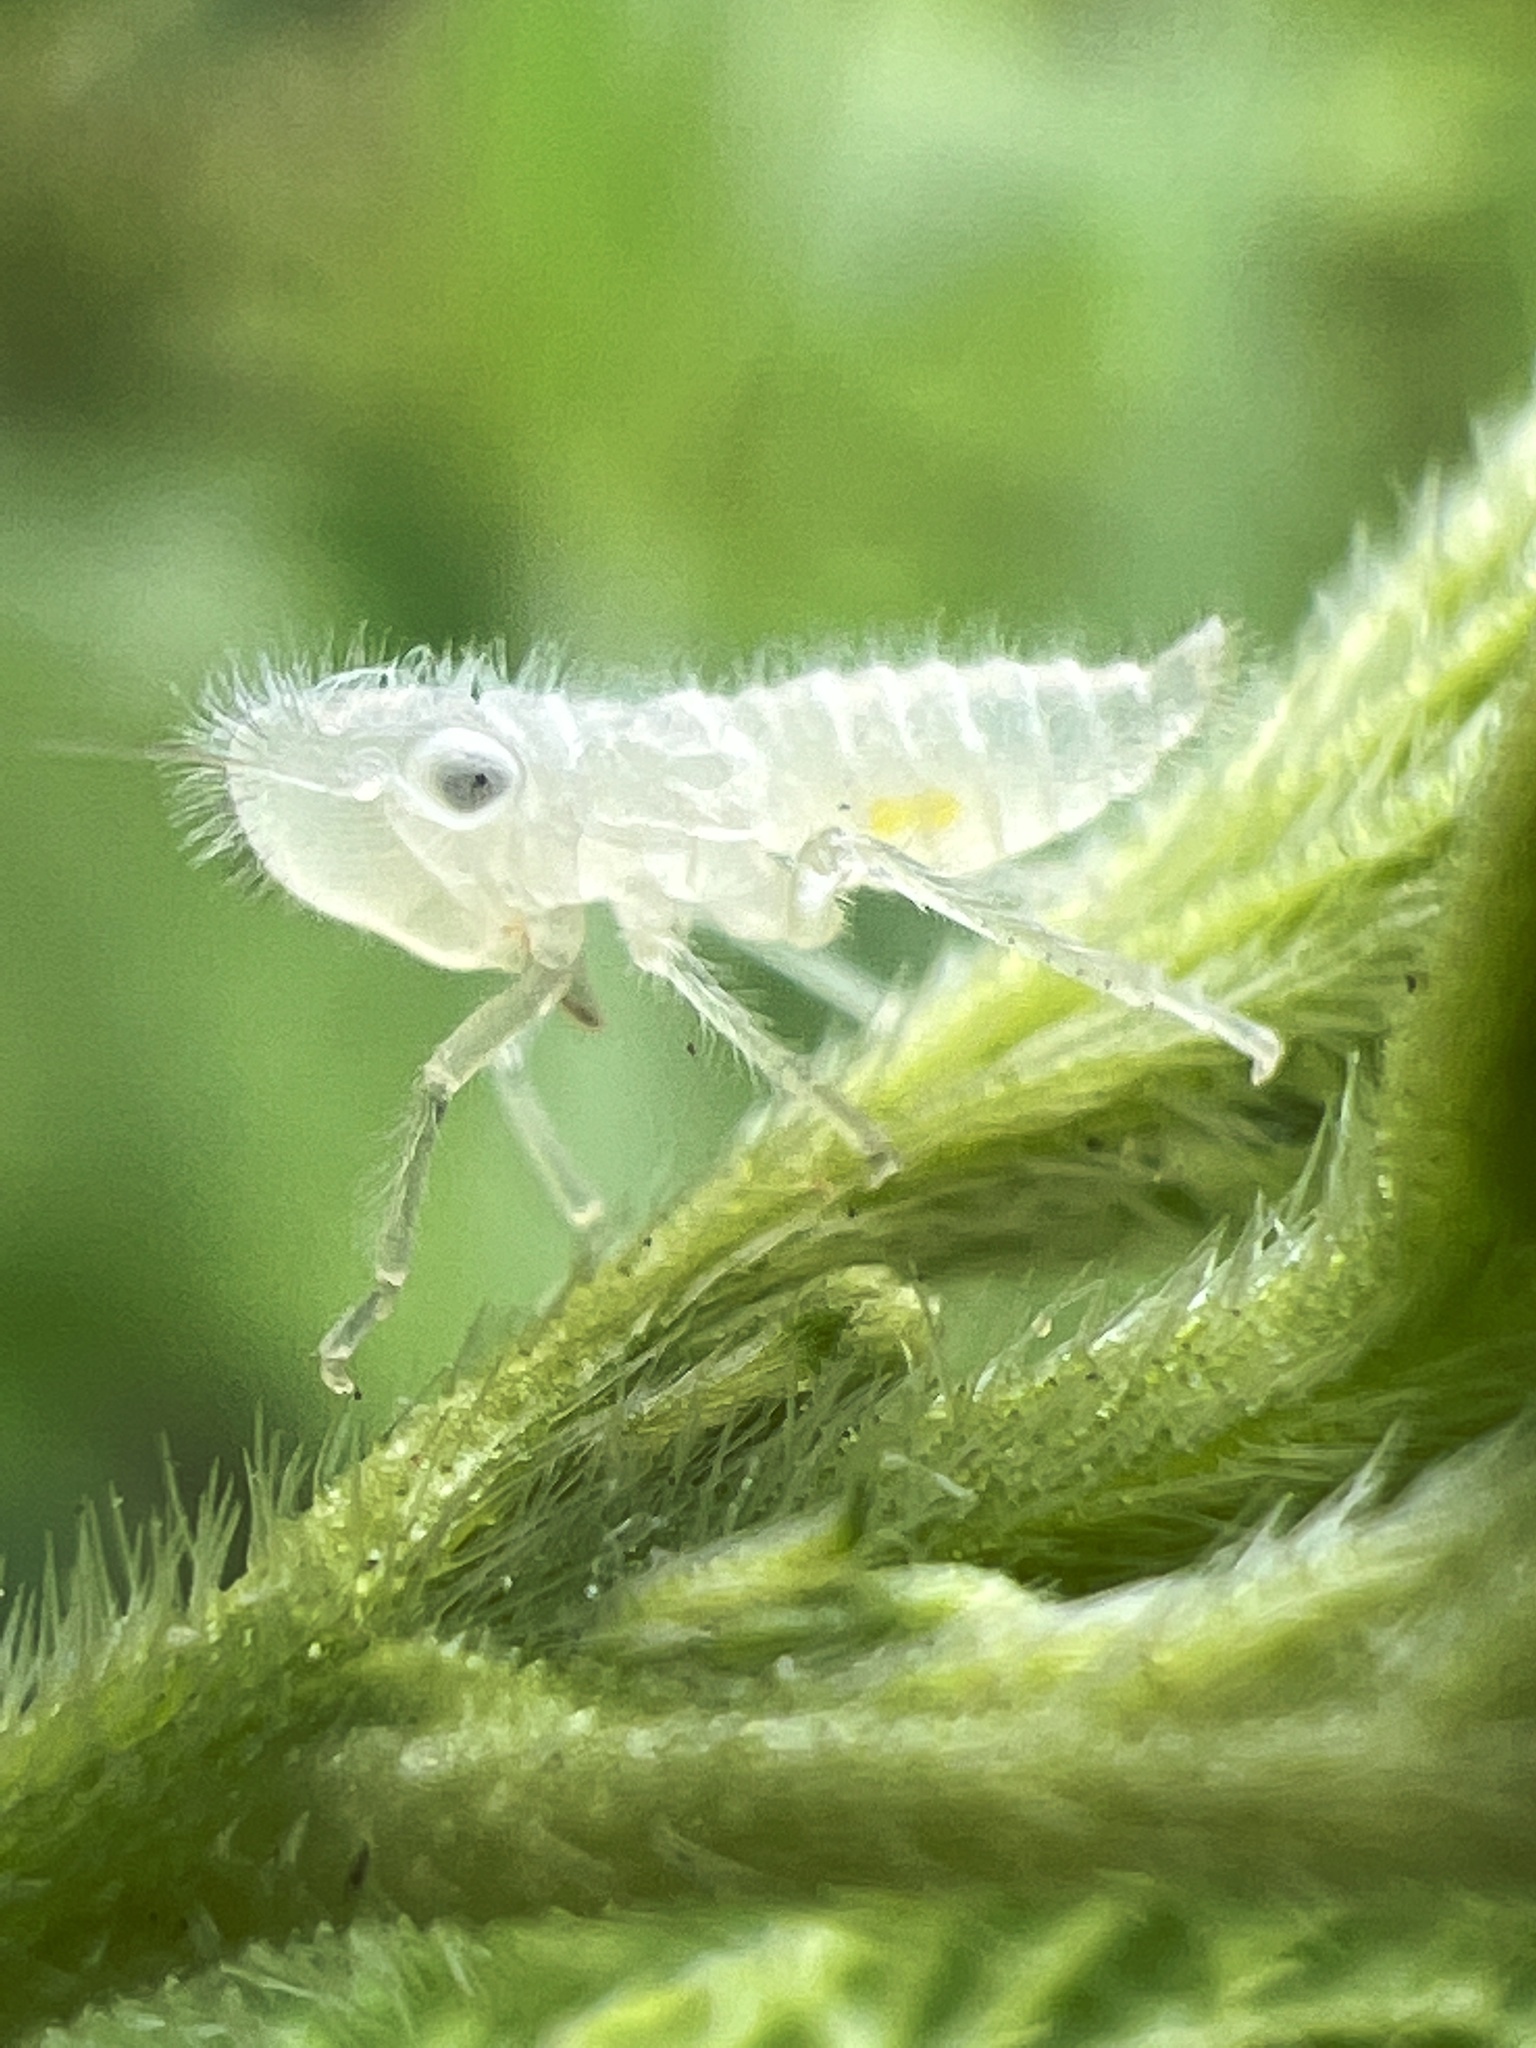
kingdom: Animalia
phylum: Arthropoda
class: Insecta
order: Hemiptera
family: Cicadellidae
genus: Paraulacizes
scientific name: Paraulacizes irrorata
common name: Speckled sharpshooter
